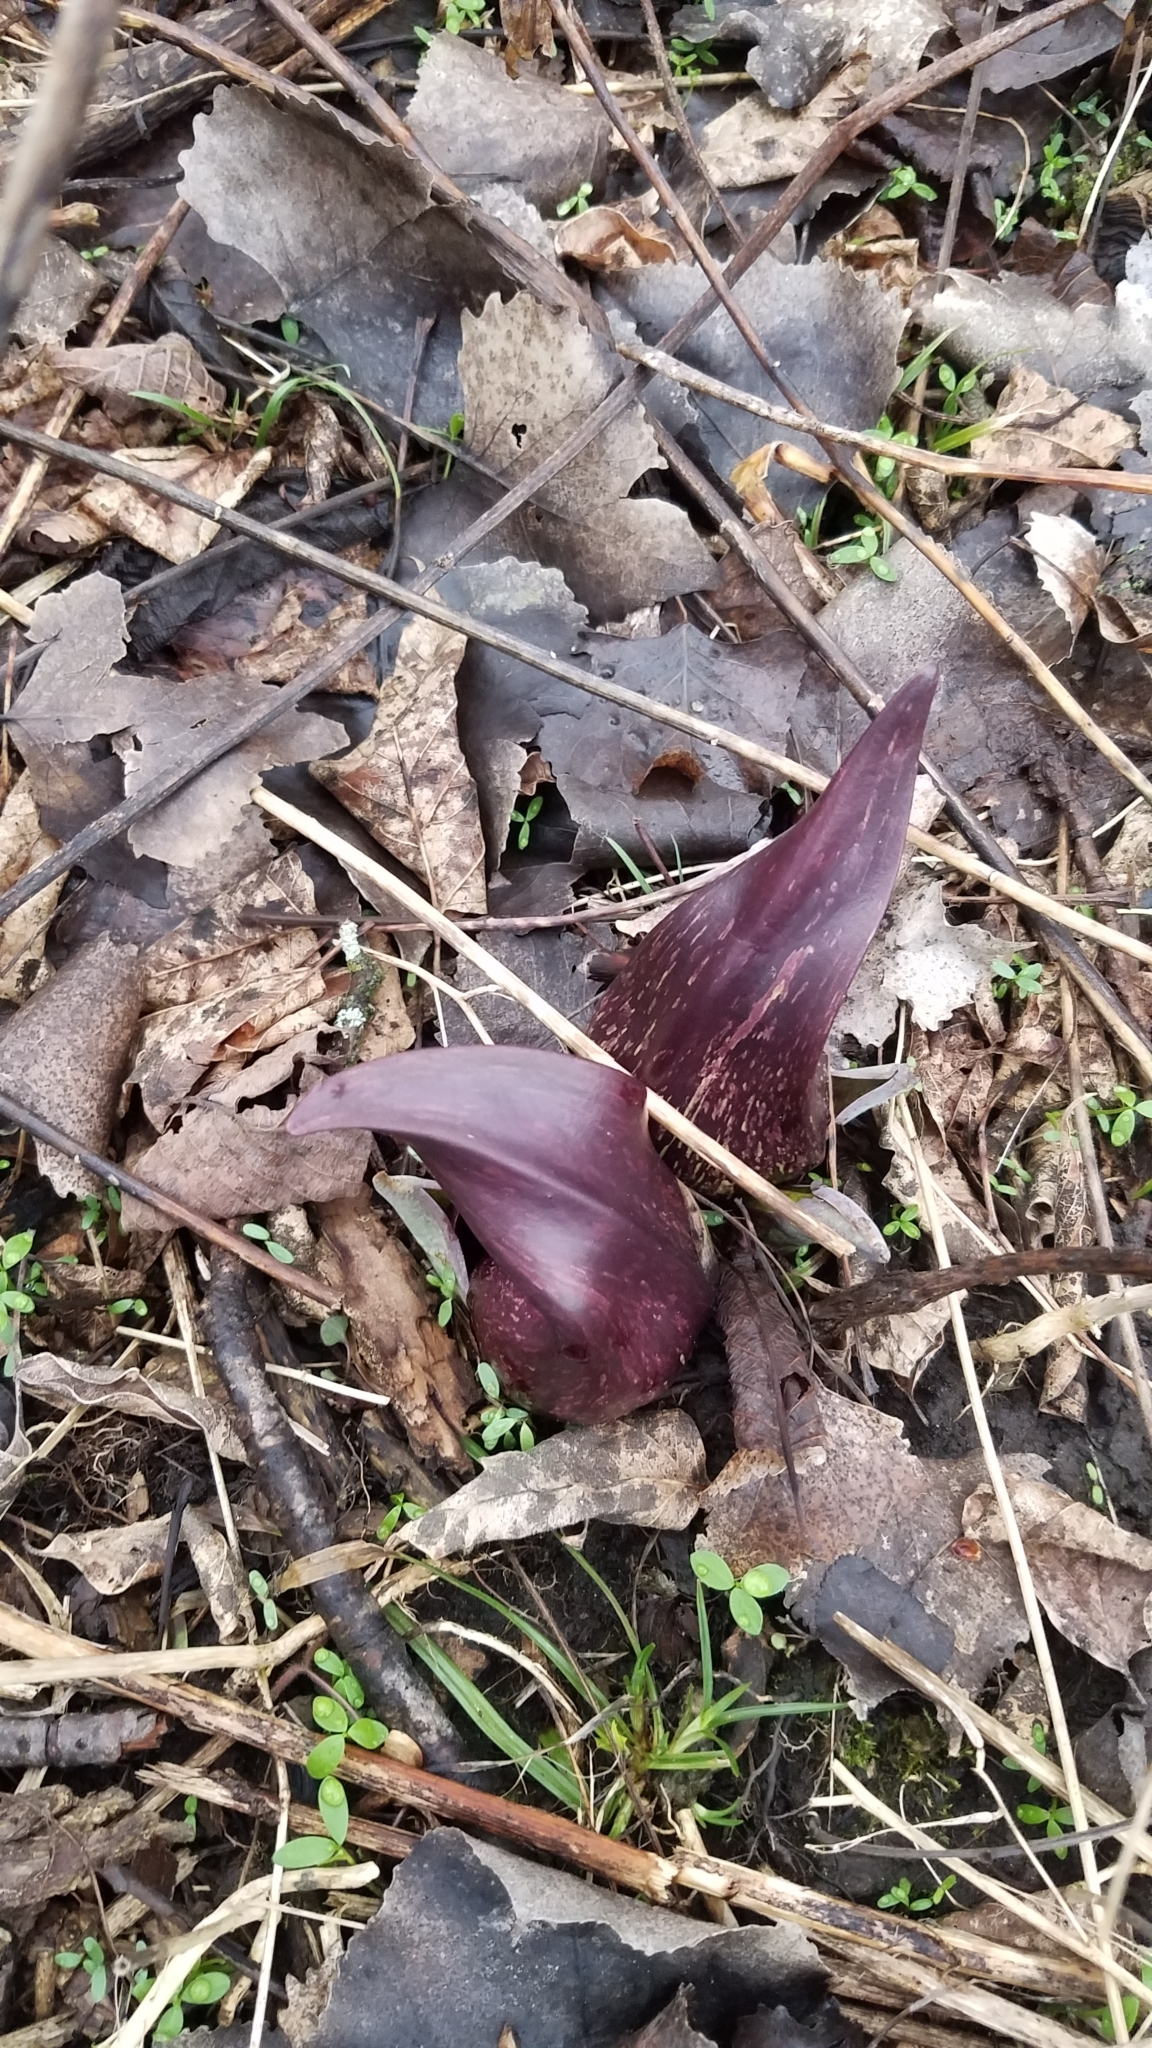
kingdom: Plantae
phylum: Tracheophyta
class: Liliopsida
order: Alismatales
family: Araceae
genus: Symplocarpus
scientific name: Symplocarpus foetidus
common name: Eastern skunk cabbage
